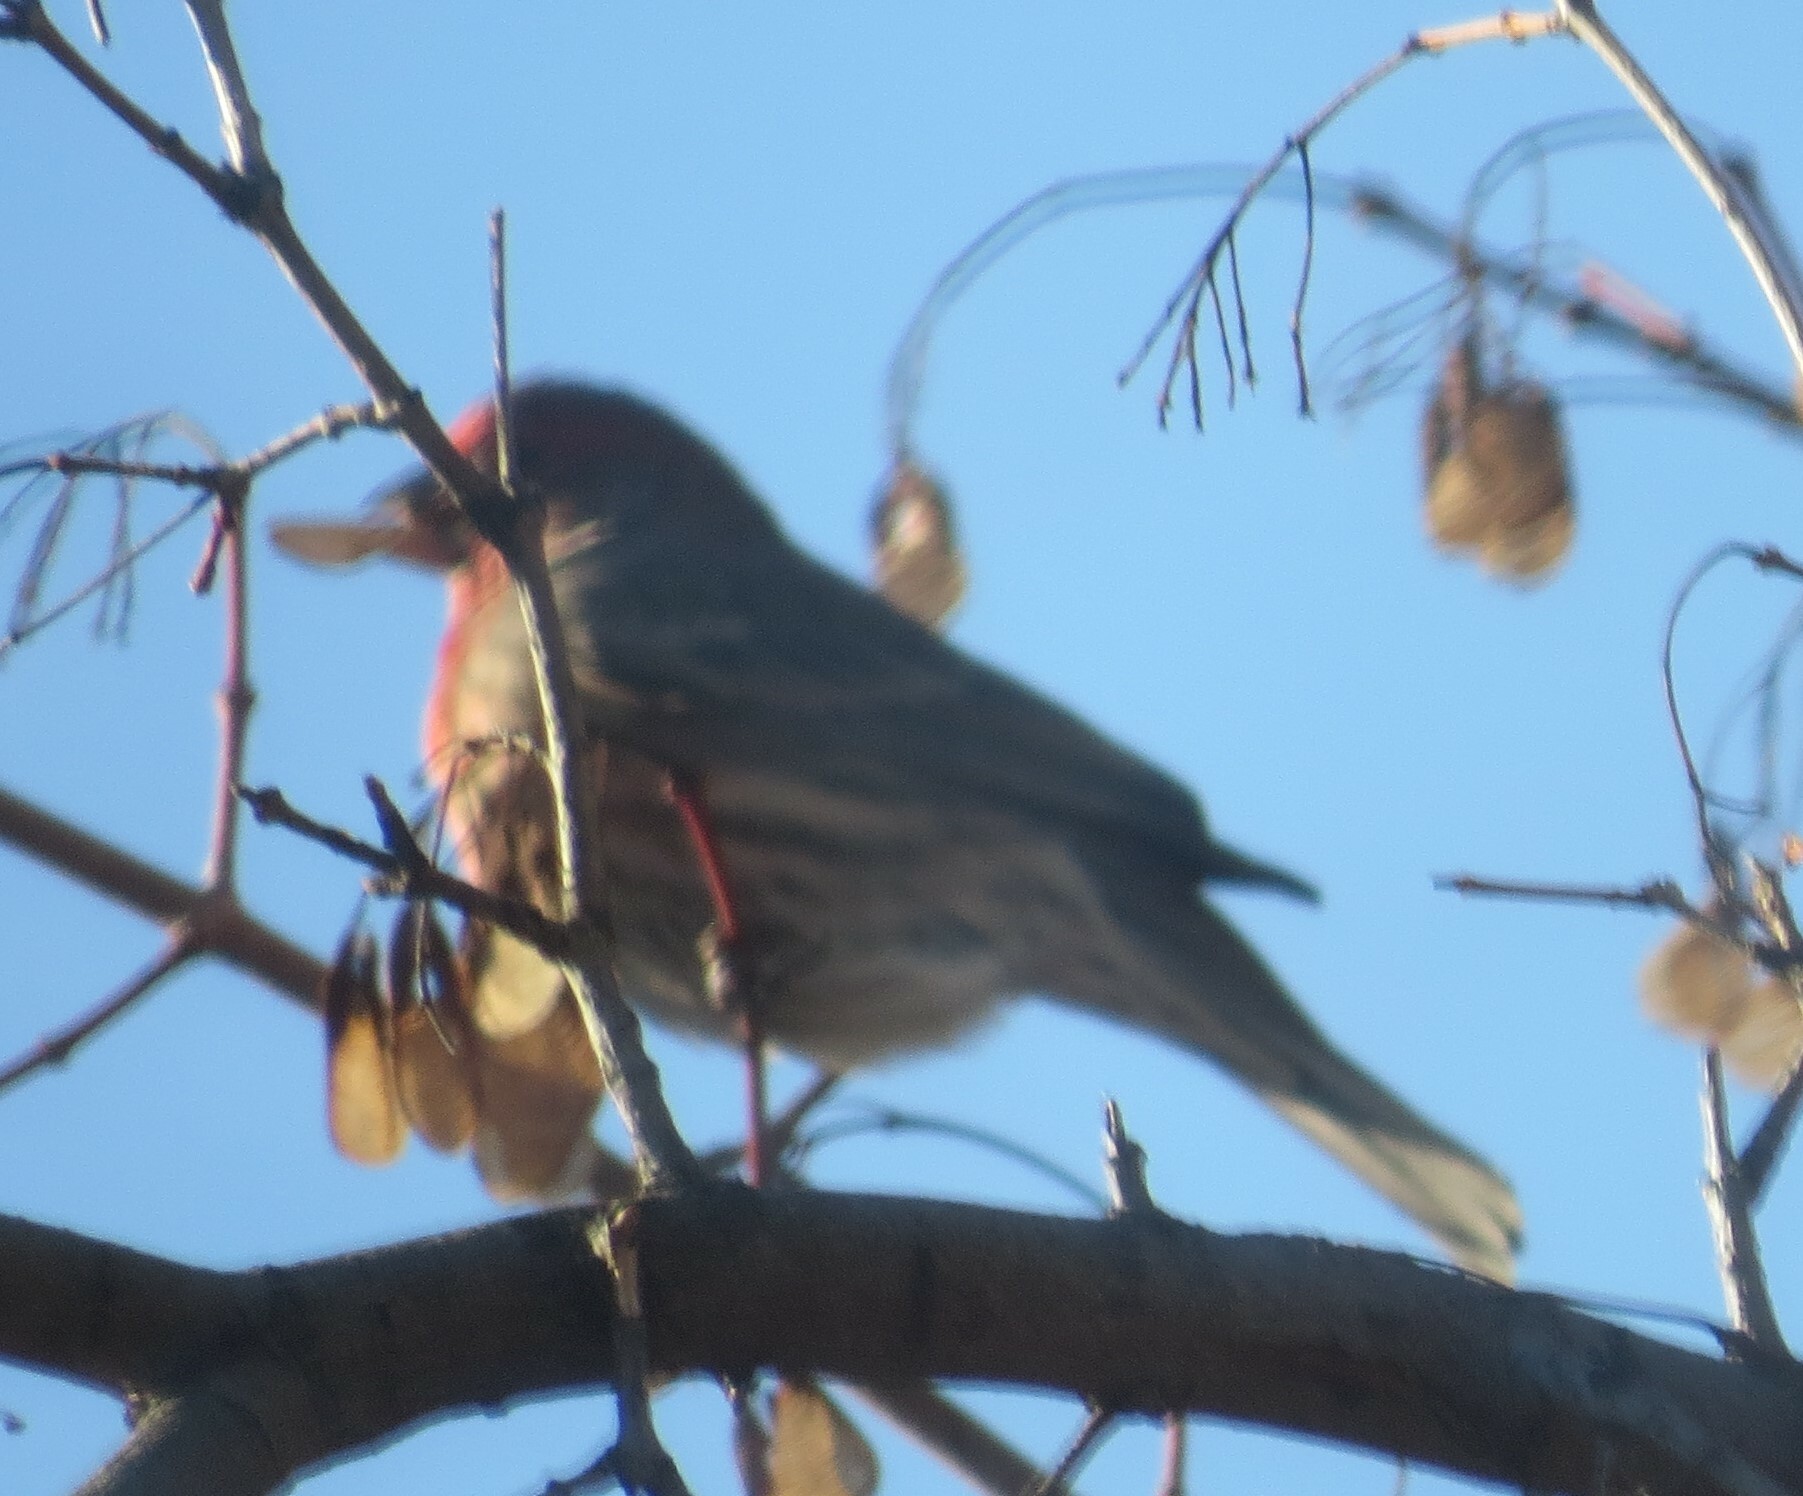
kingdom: Animalia
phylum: Chordata
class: Aves
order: Passeriformes
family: Fringillidae
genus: Haemorhous
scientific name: Haemorhous mexicanus
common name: House finch
